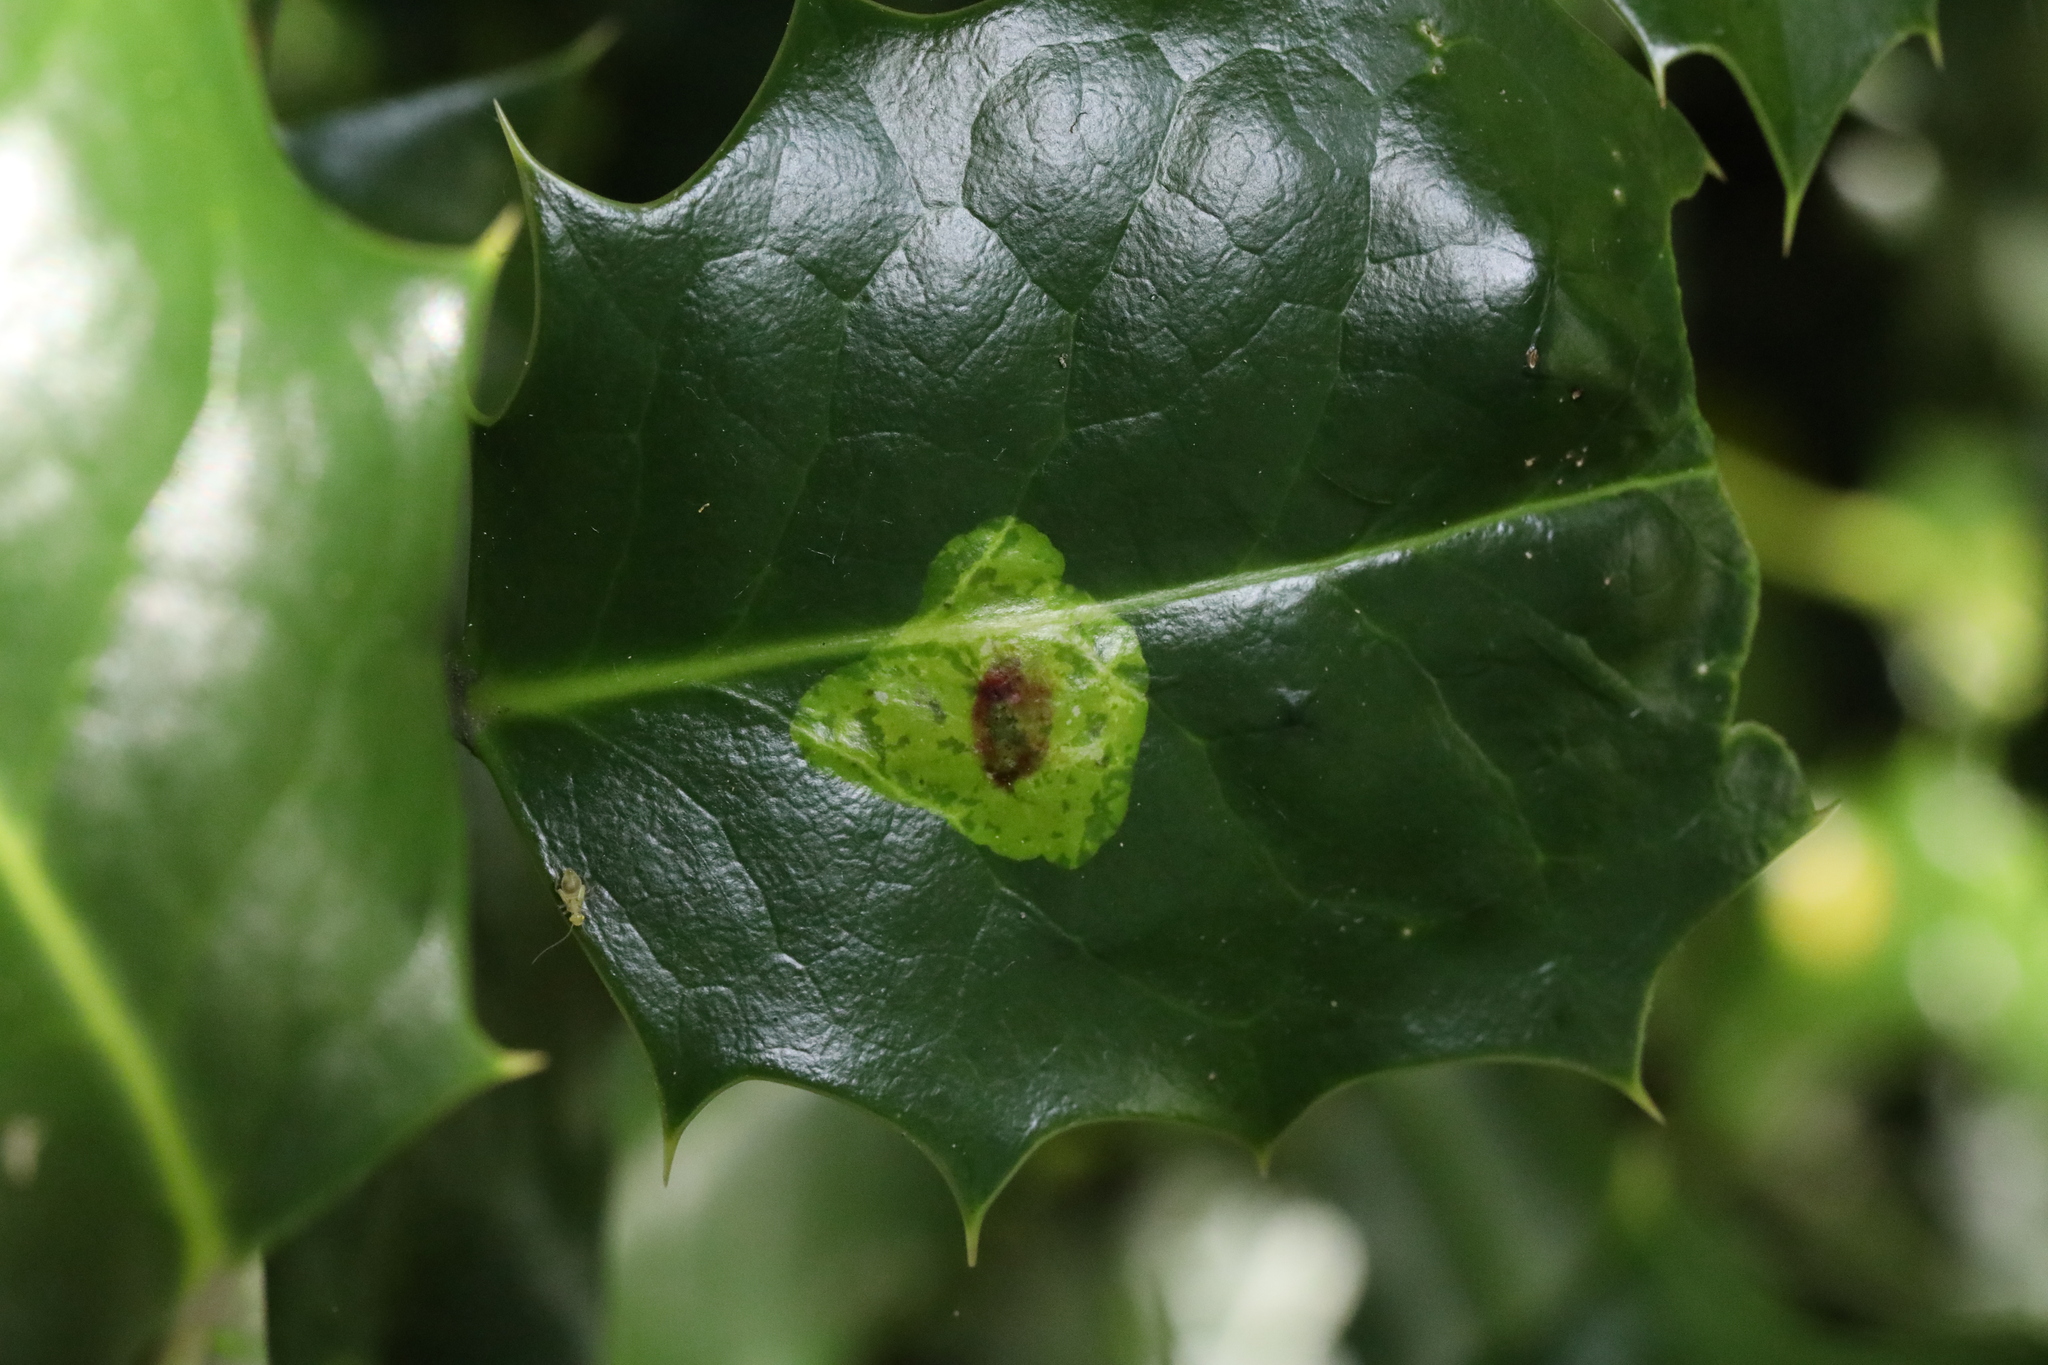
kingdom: Animalia
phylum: Arthropoda
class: Insecta
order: Diptera
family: Agromyzidae
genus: Phytomyza
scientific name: Phytomyza ilicis
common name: Holly leafminer
